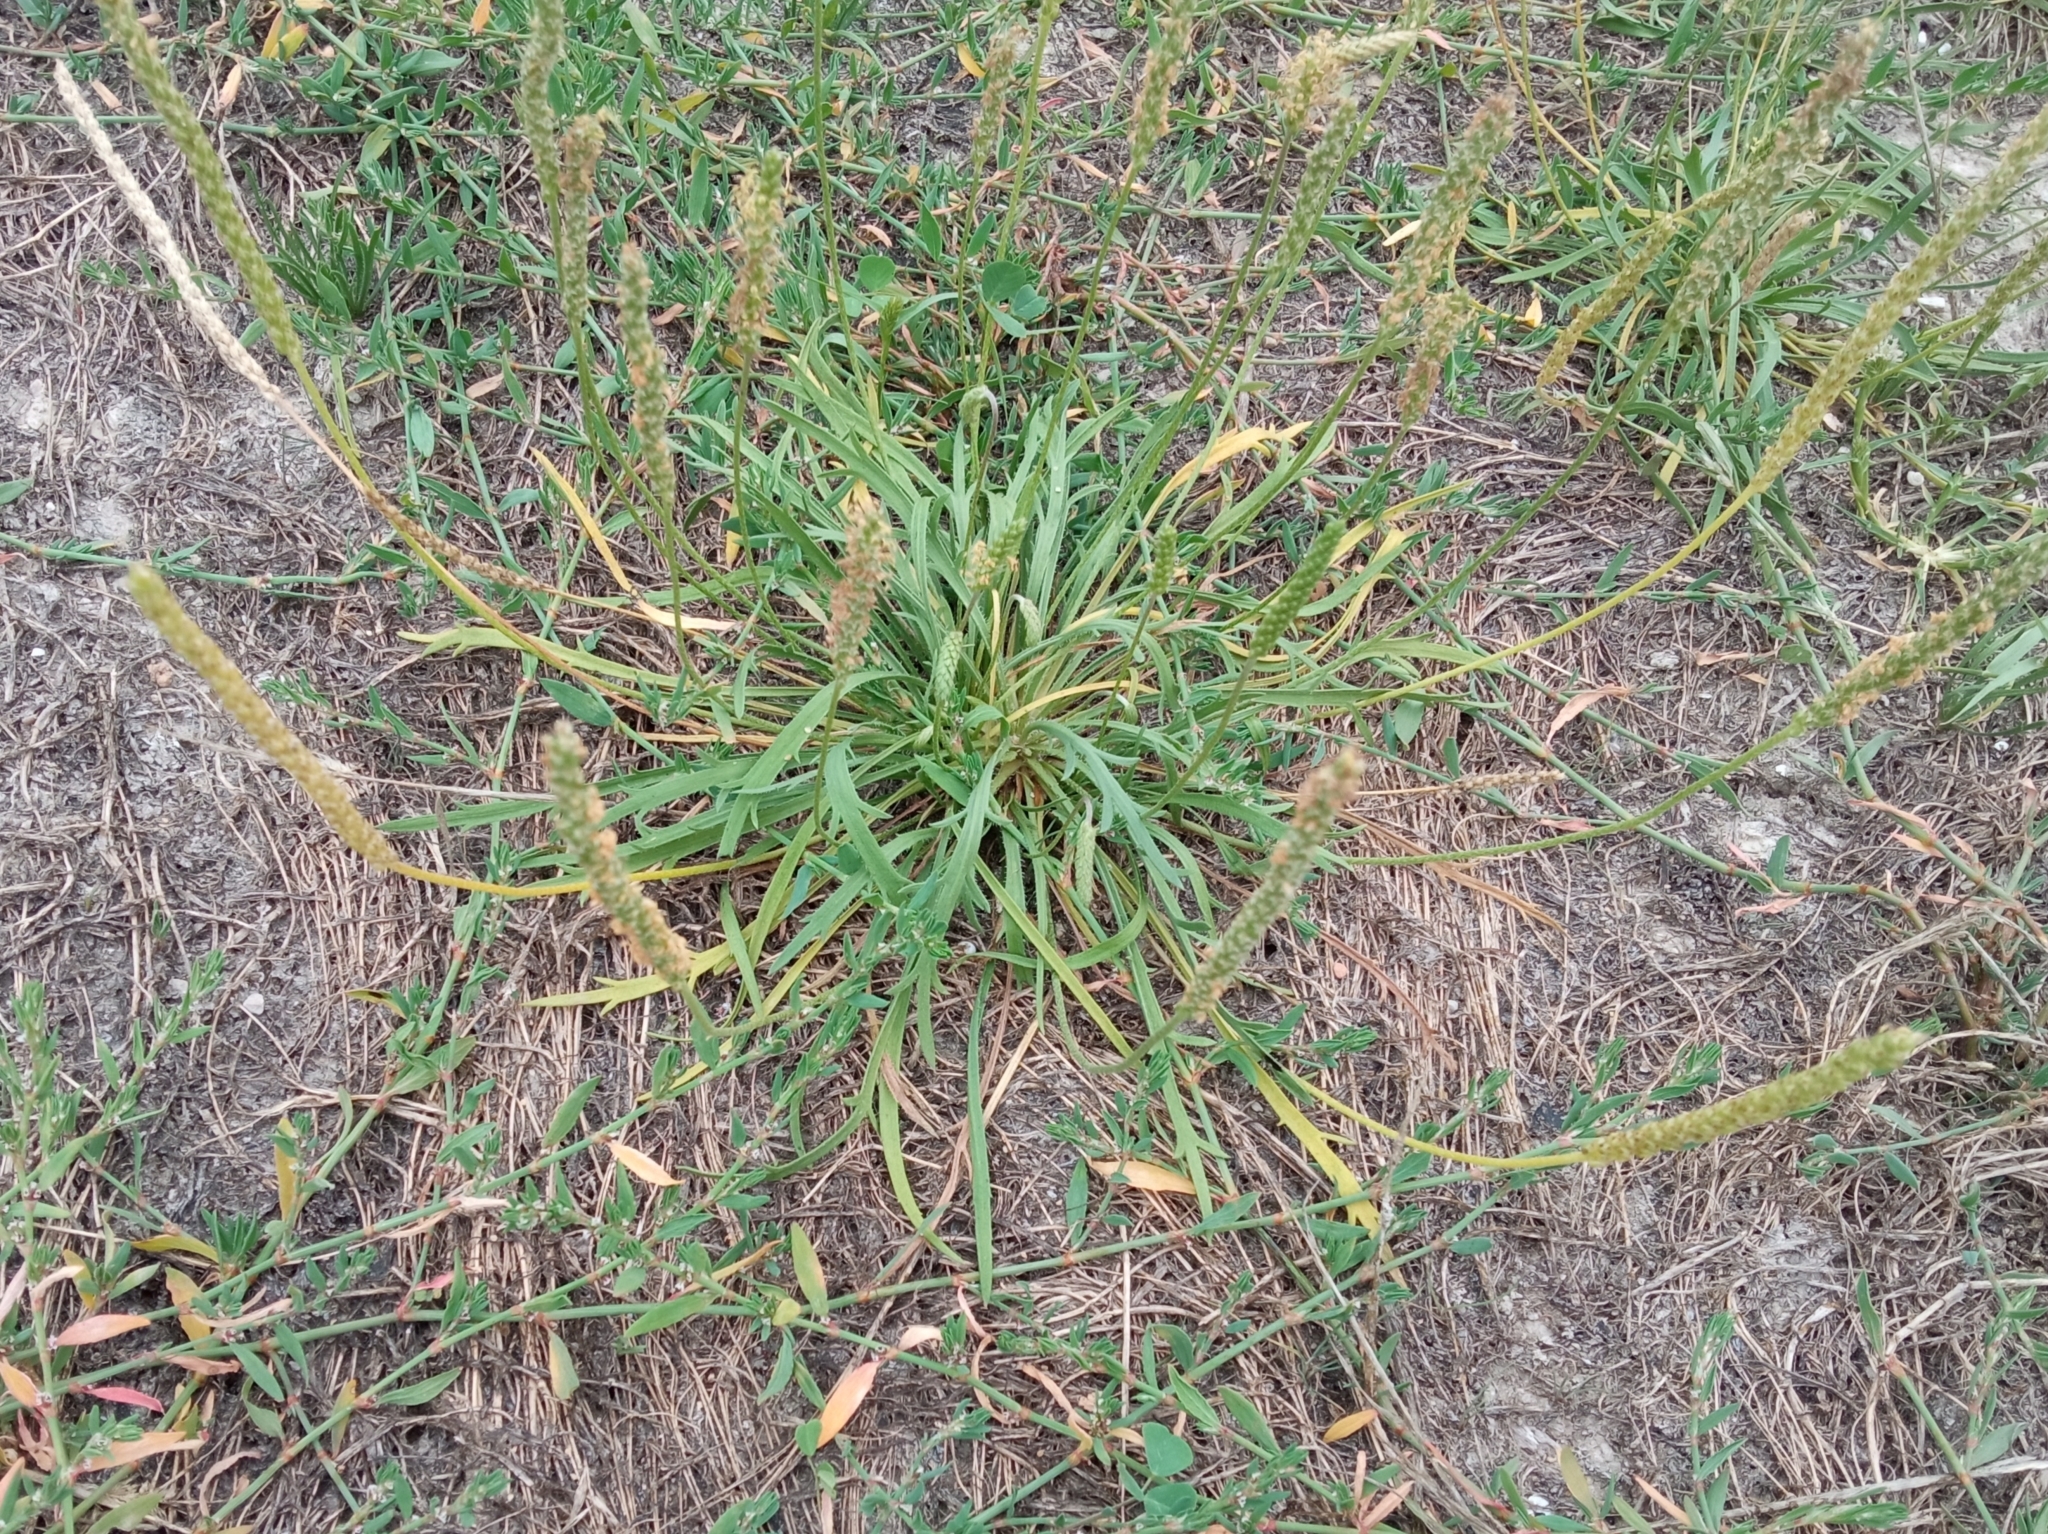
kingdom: Plantae
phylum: Tracheophyta
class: Magnoliopsida
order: Lamiales
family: Plantaginaceae
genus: Plantago
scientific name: Plantago coronopus
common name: Buck's-horn plantain
